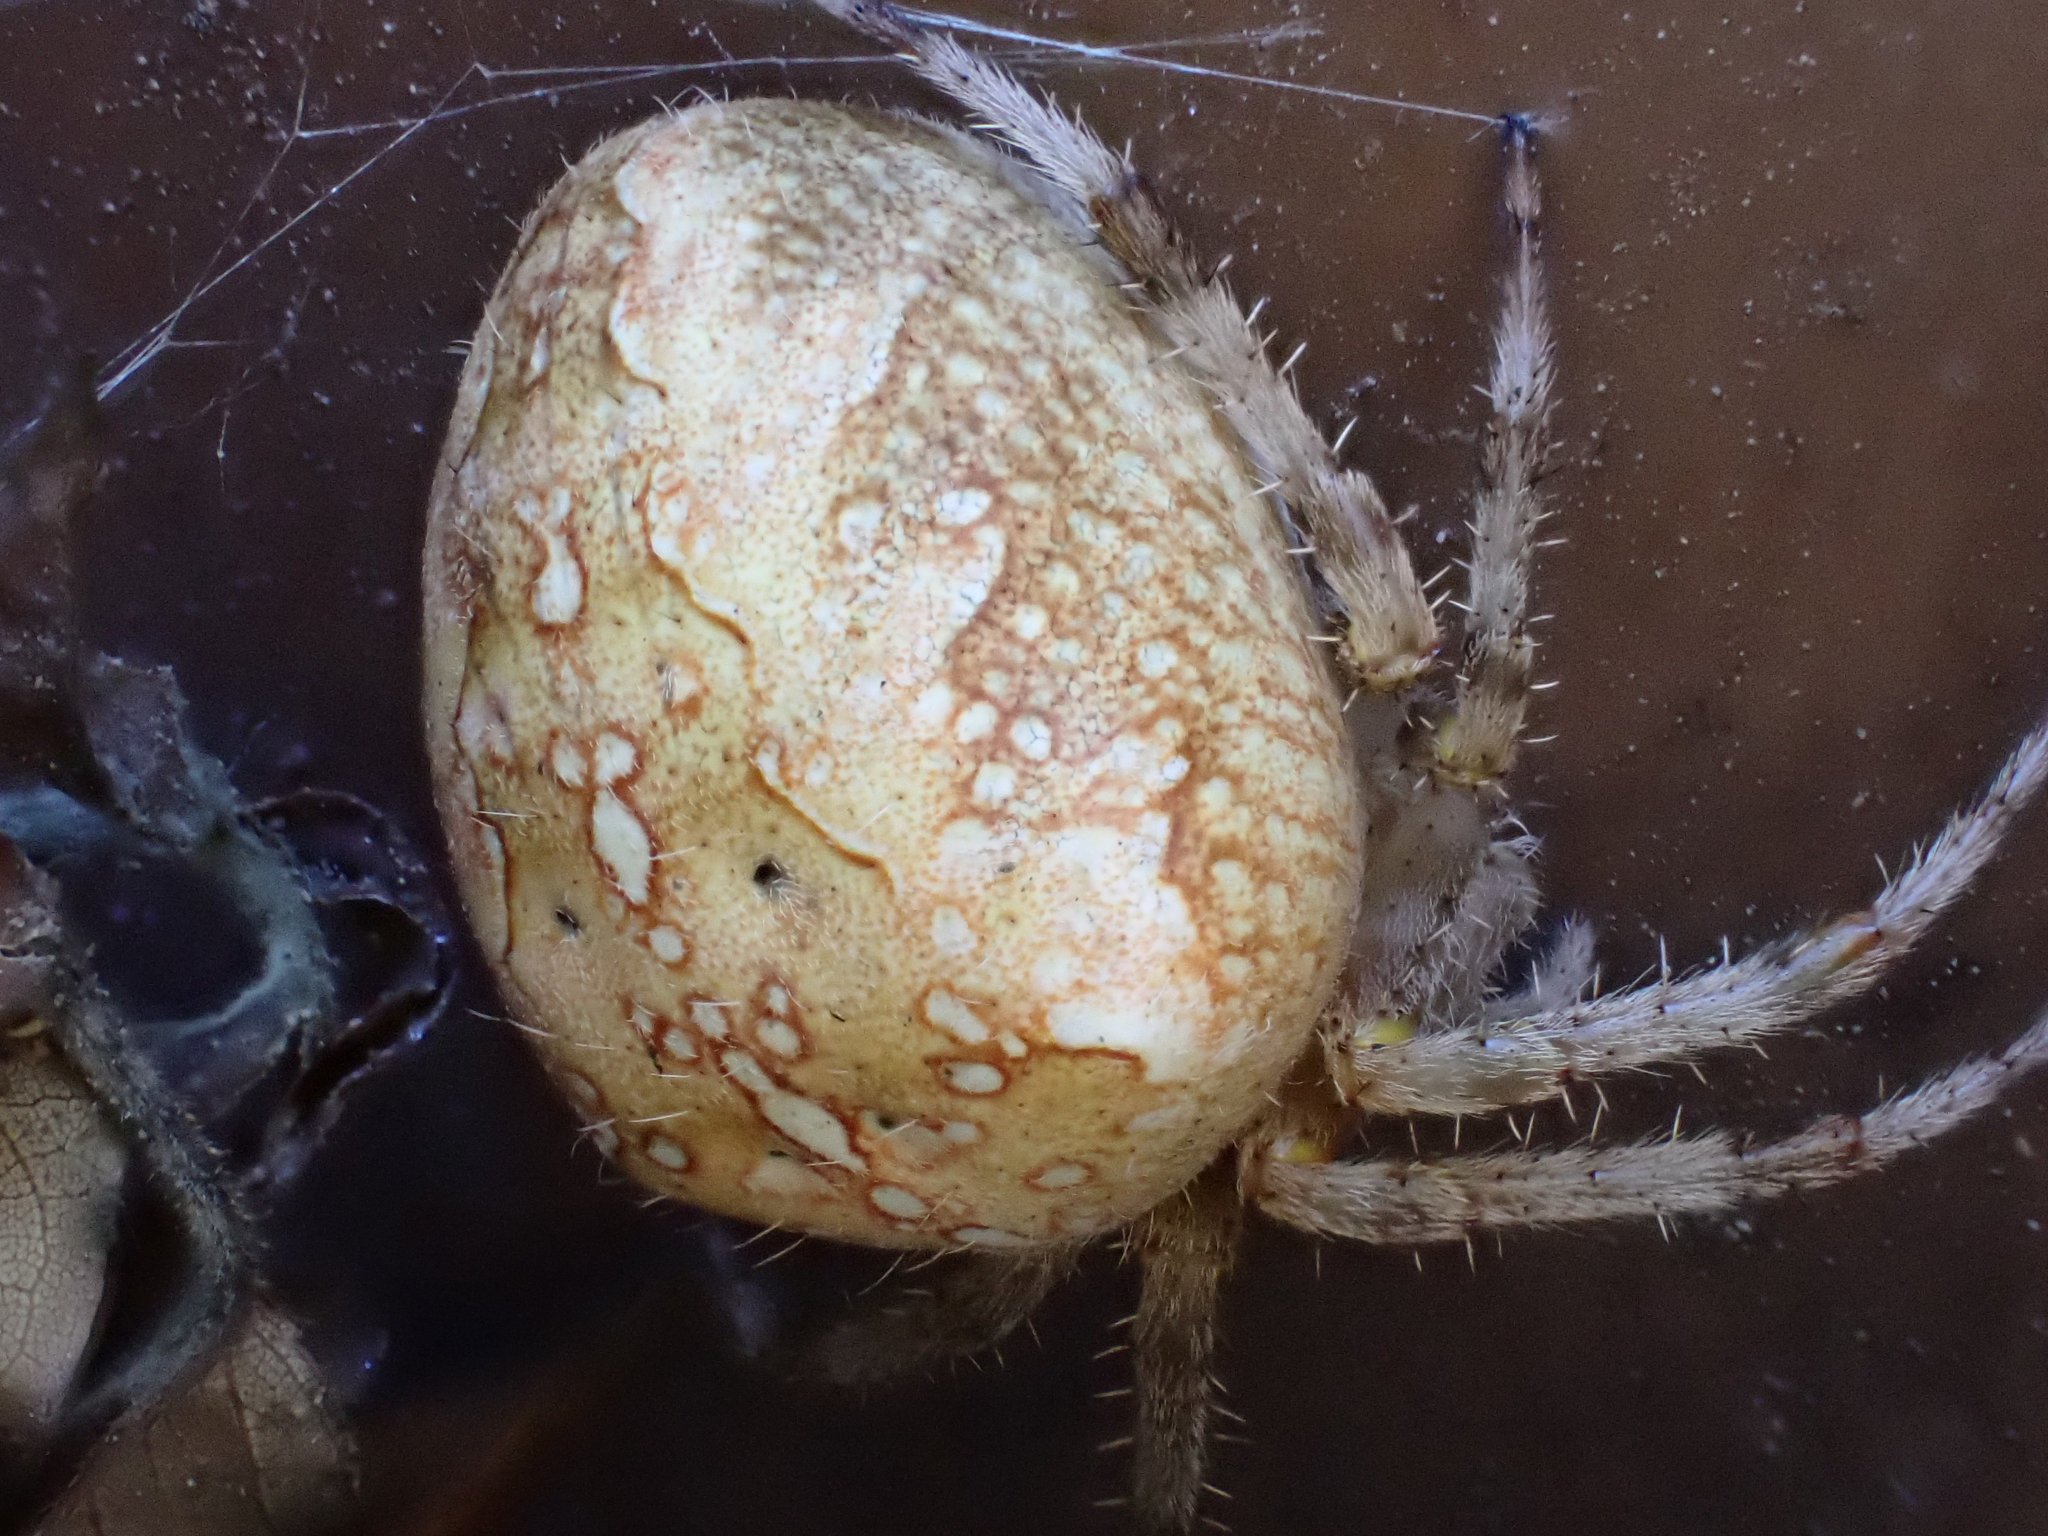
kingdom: Animalia
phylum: Arthropoda
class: Arachnida
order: Araneae
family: Araneidae
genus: Araneus
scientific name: Araneus diadematus
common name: Cross orbweaver
